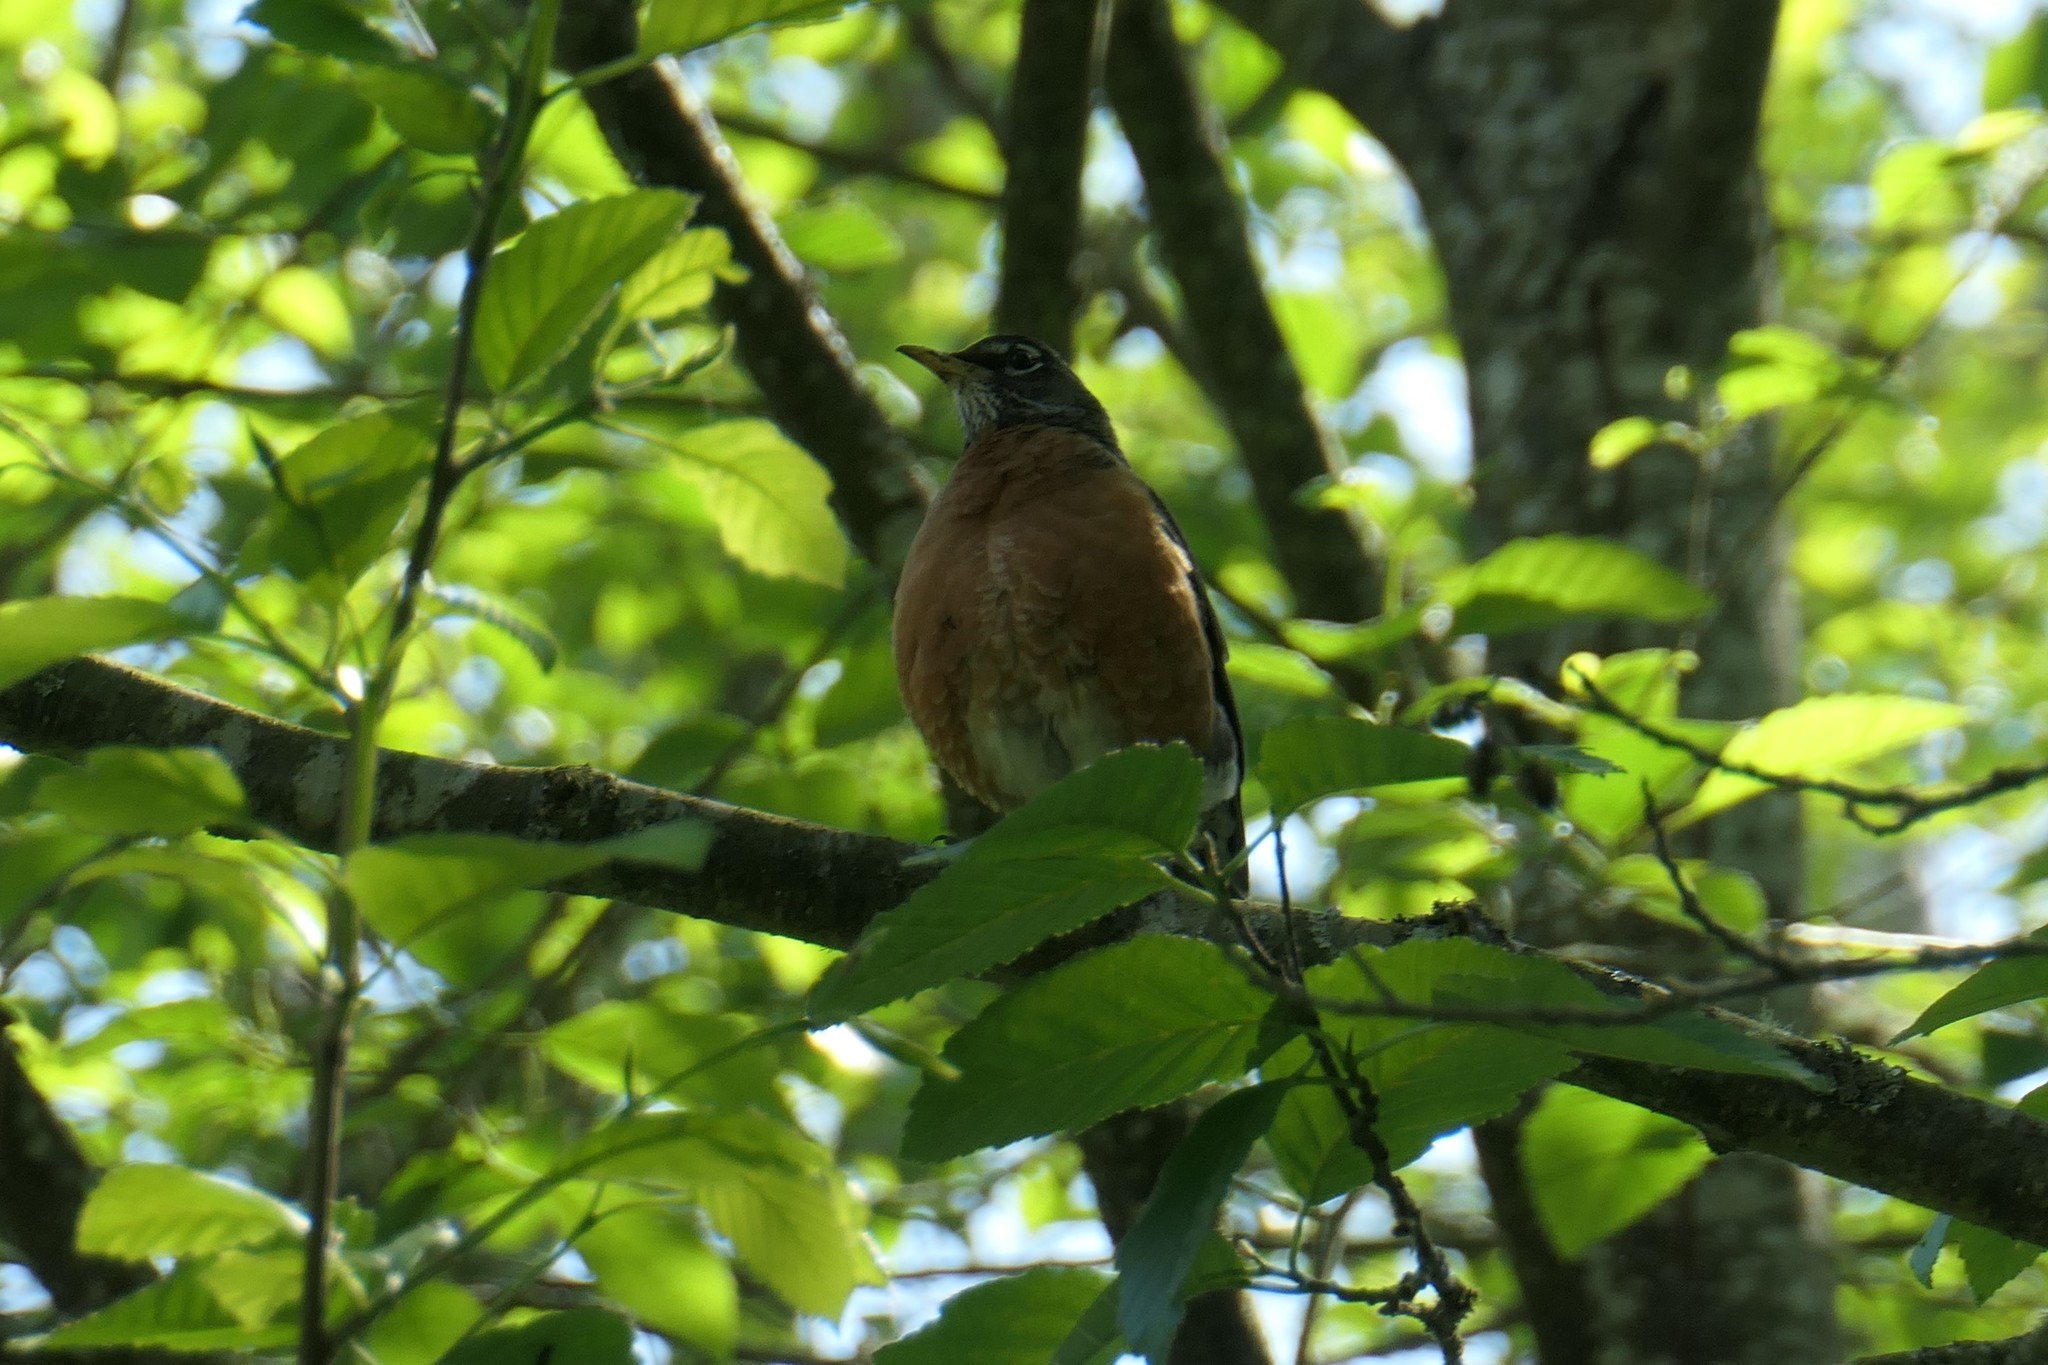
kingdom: Animalia
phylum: Chordata
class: Aves
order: Passeriformes
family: Turdidae
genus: Turdus
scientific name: Turdus migratorius
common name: American robin
